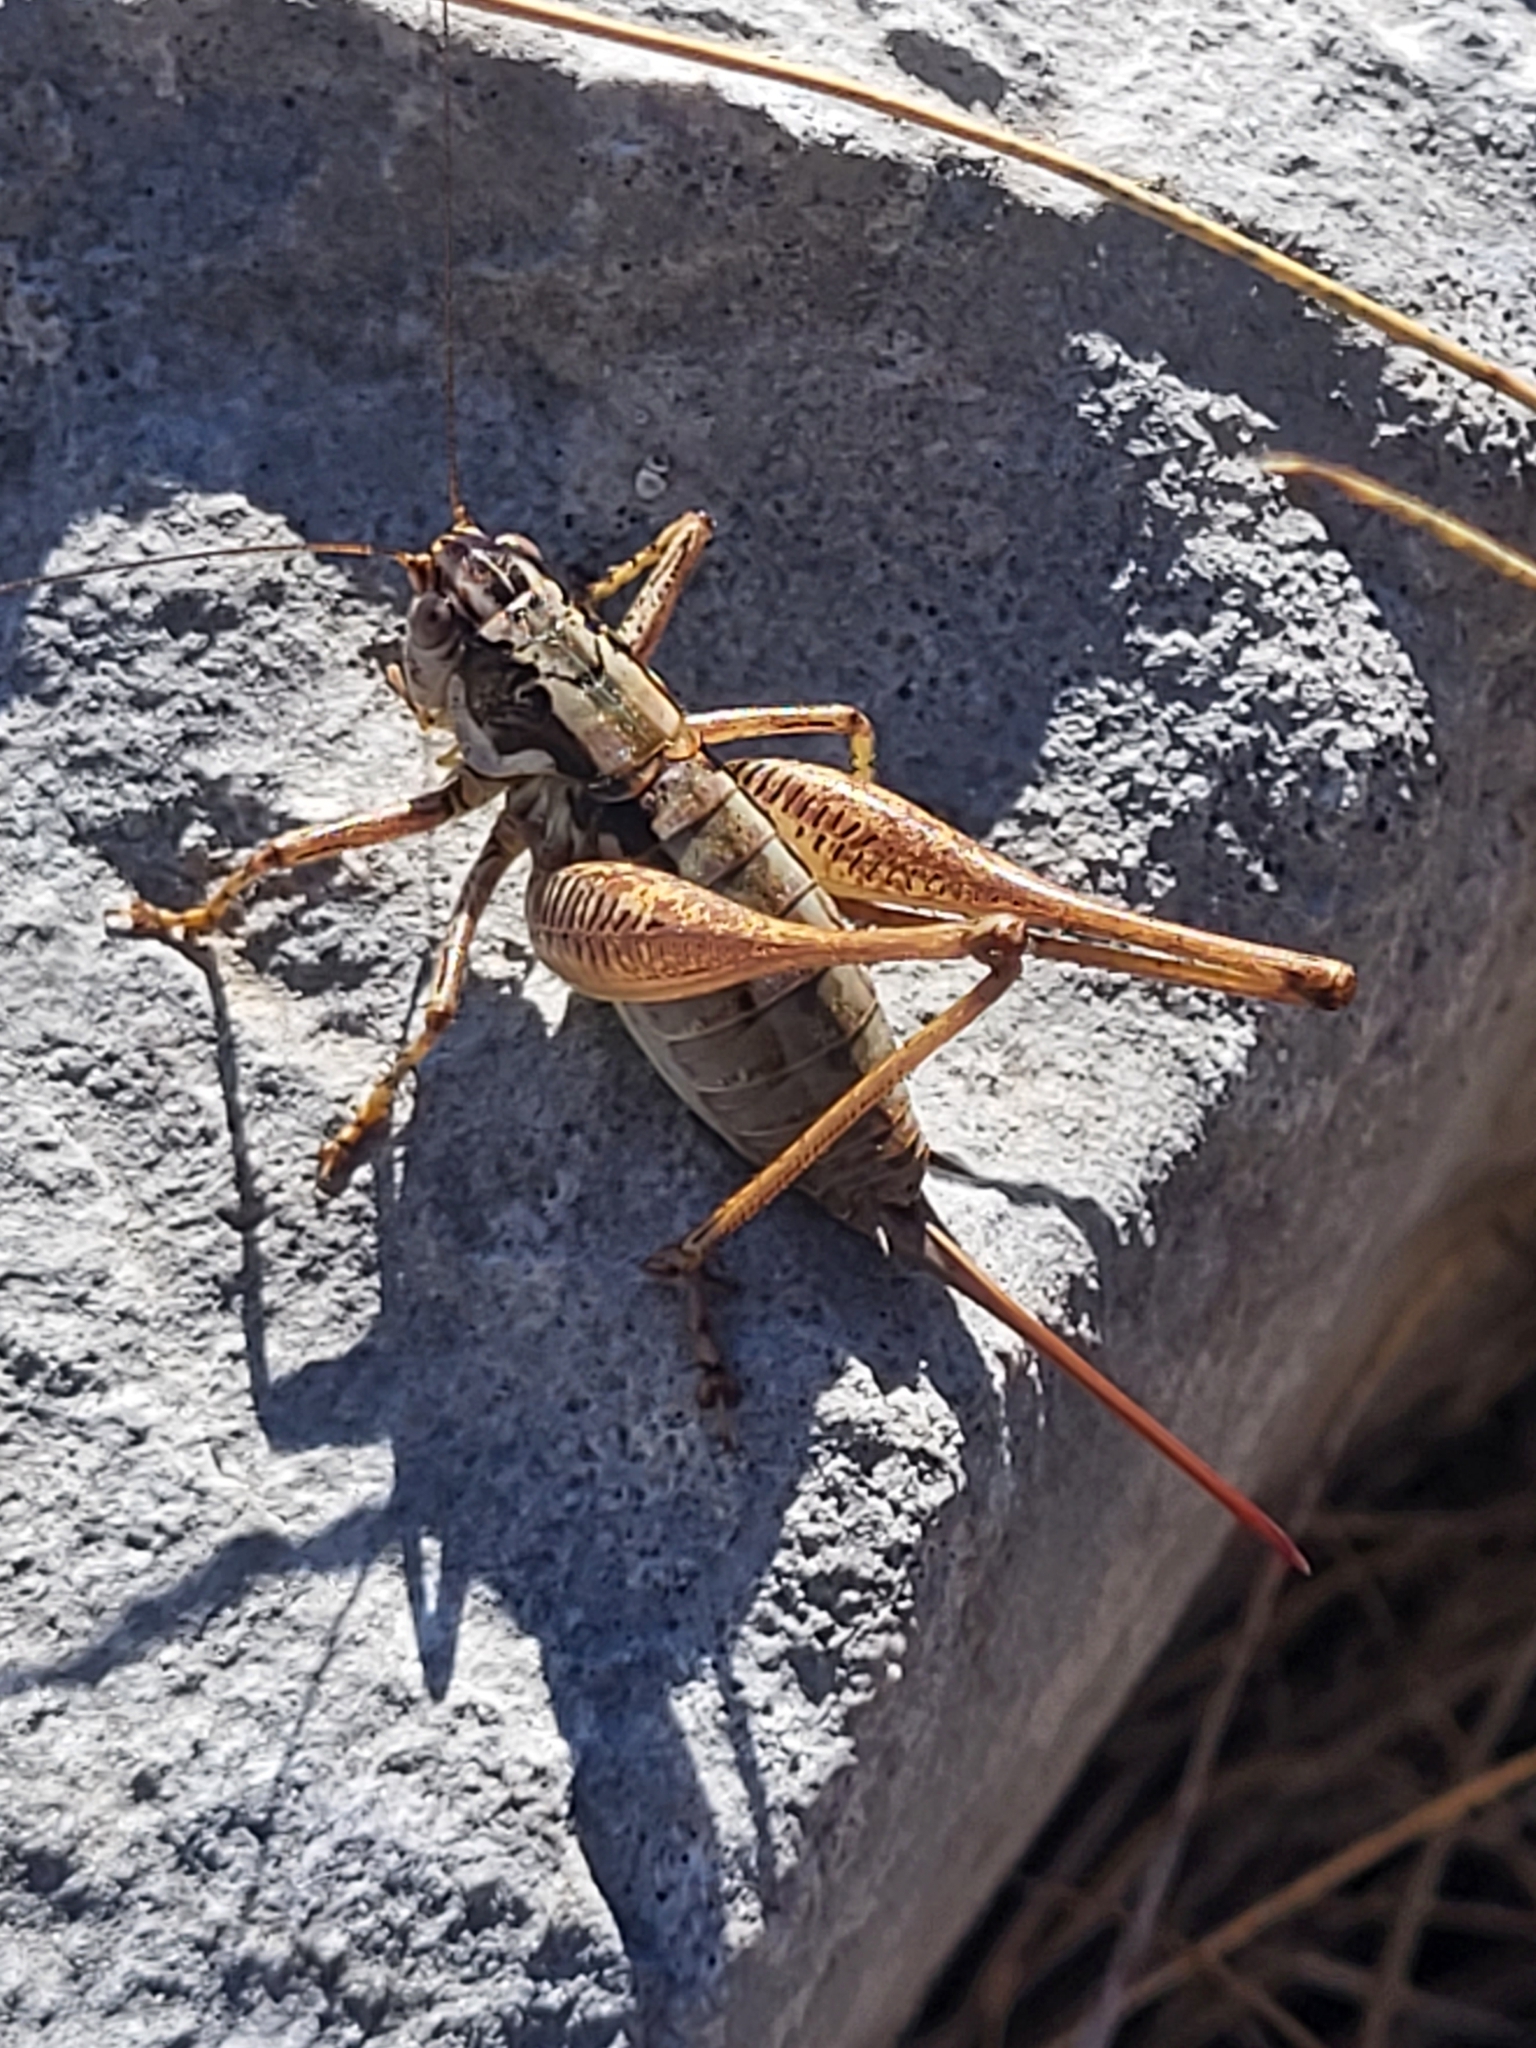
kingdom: Animalia
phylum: Arthropoda
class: Insecta
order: Orthoptera
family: Tettigoniidae
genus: Pachytrachis
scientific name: Pachytrachis striolatus
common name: Striated bush-cricket
